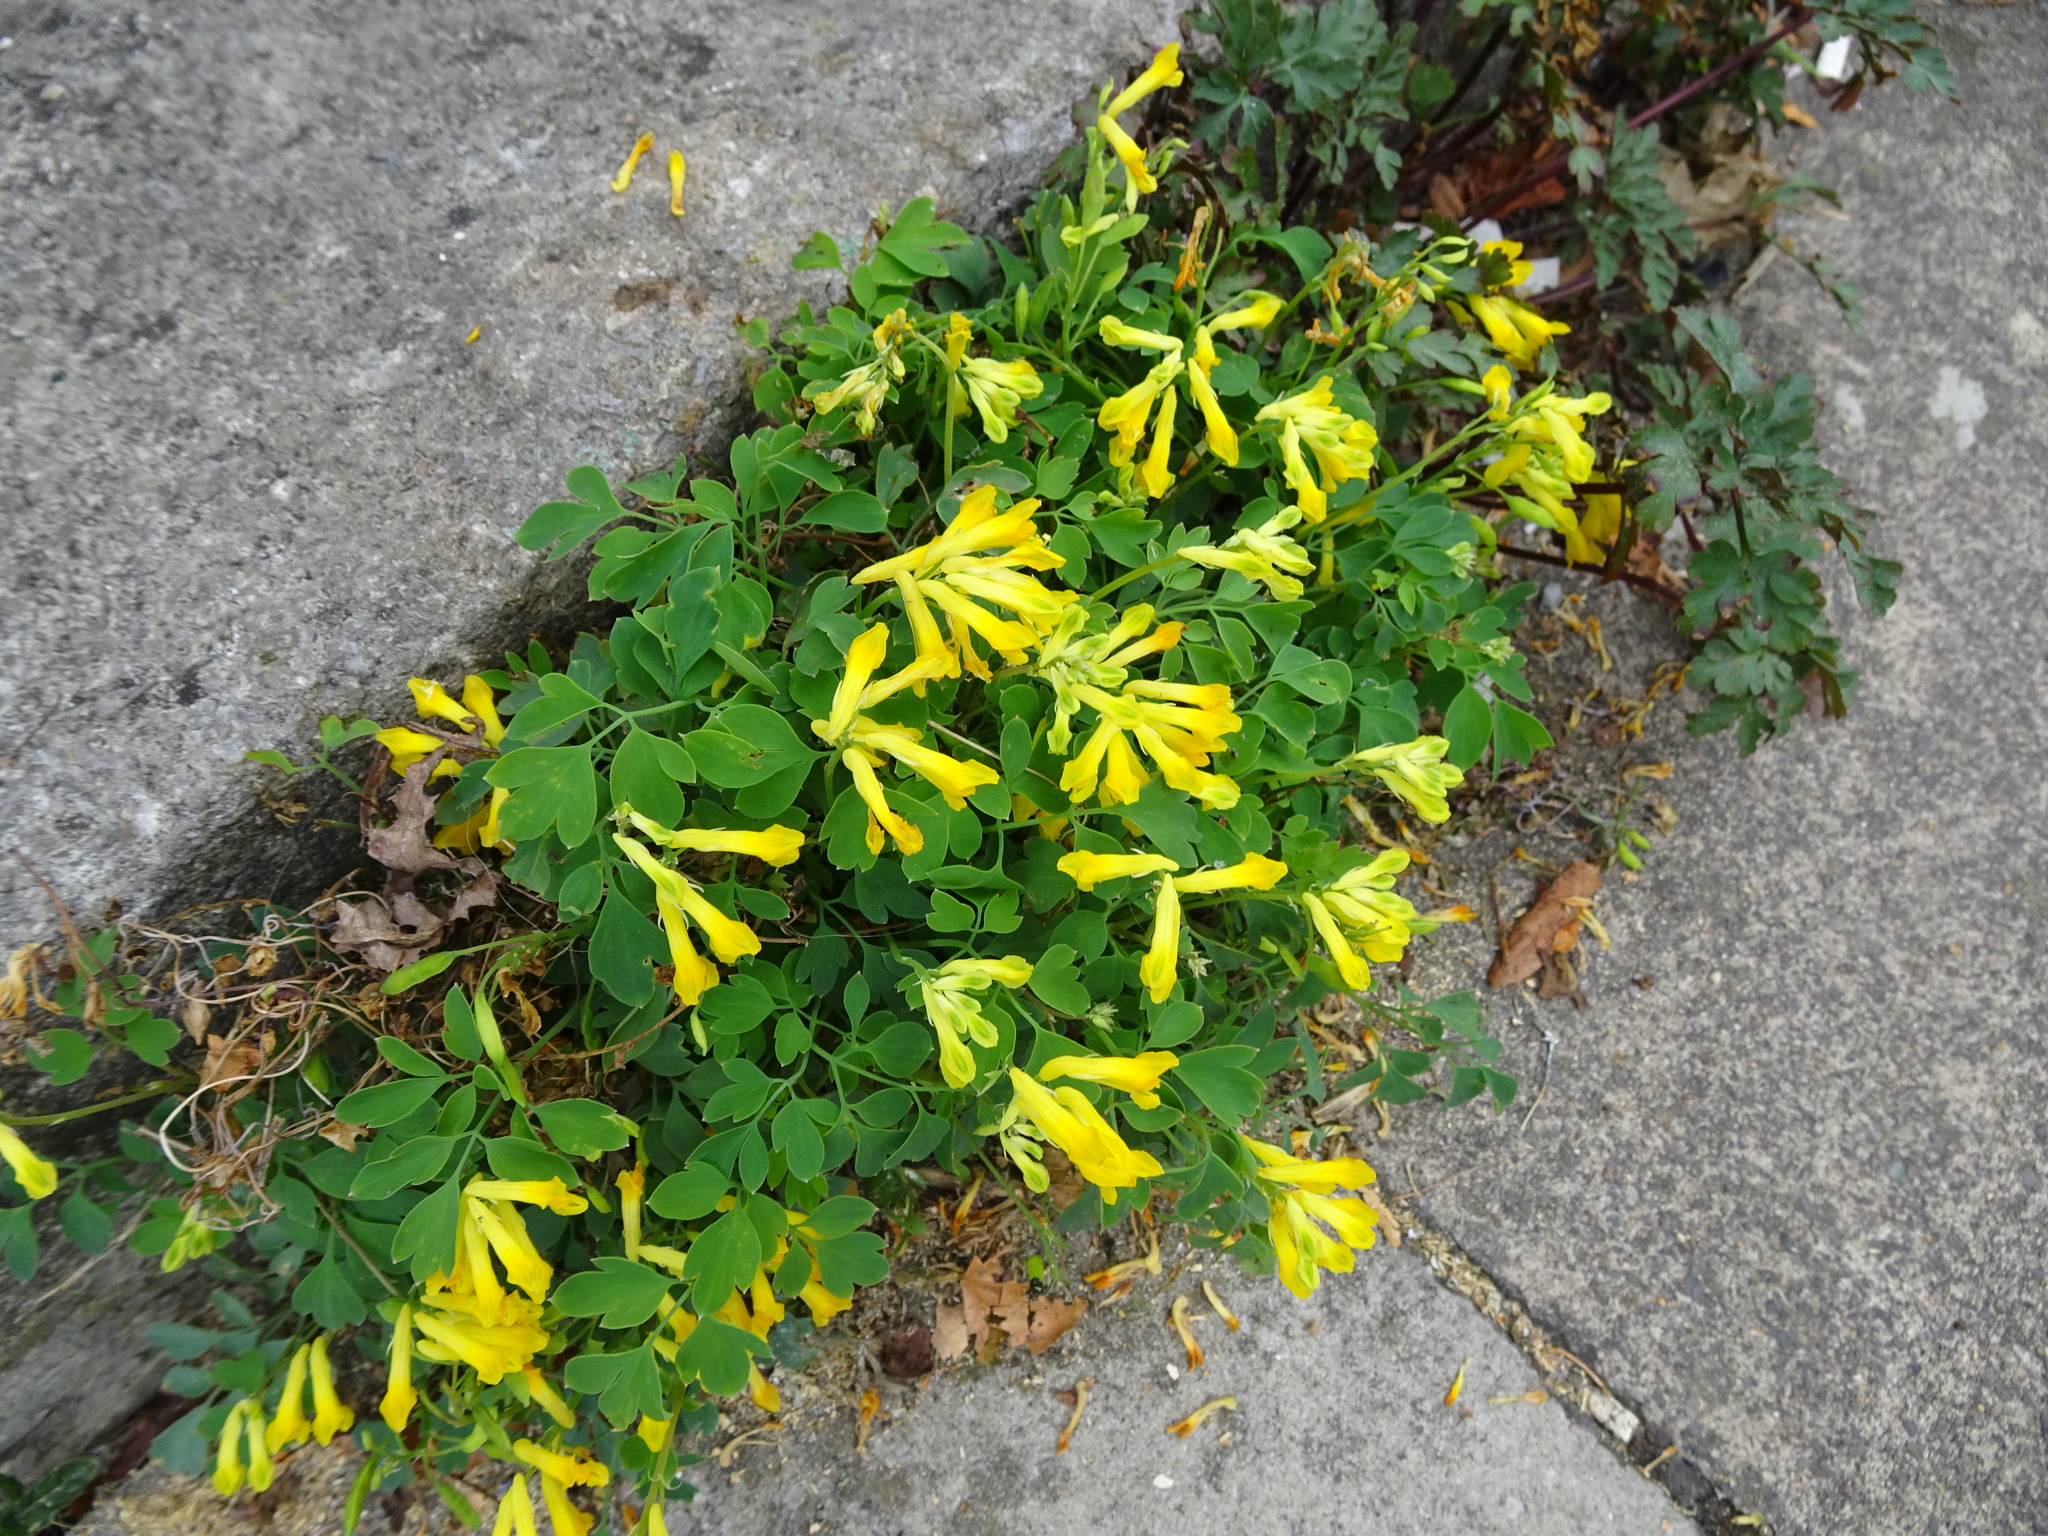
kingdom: Plantae
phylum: Tracheophyta
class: Magnoliopsida
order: Ranunculales
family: Papaveraceae
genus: Pseudofumaria
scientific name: Pseudofumaria lutea
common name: Yellow corydalis
